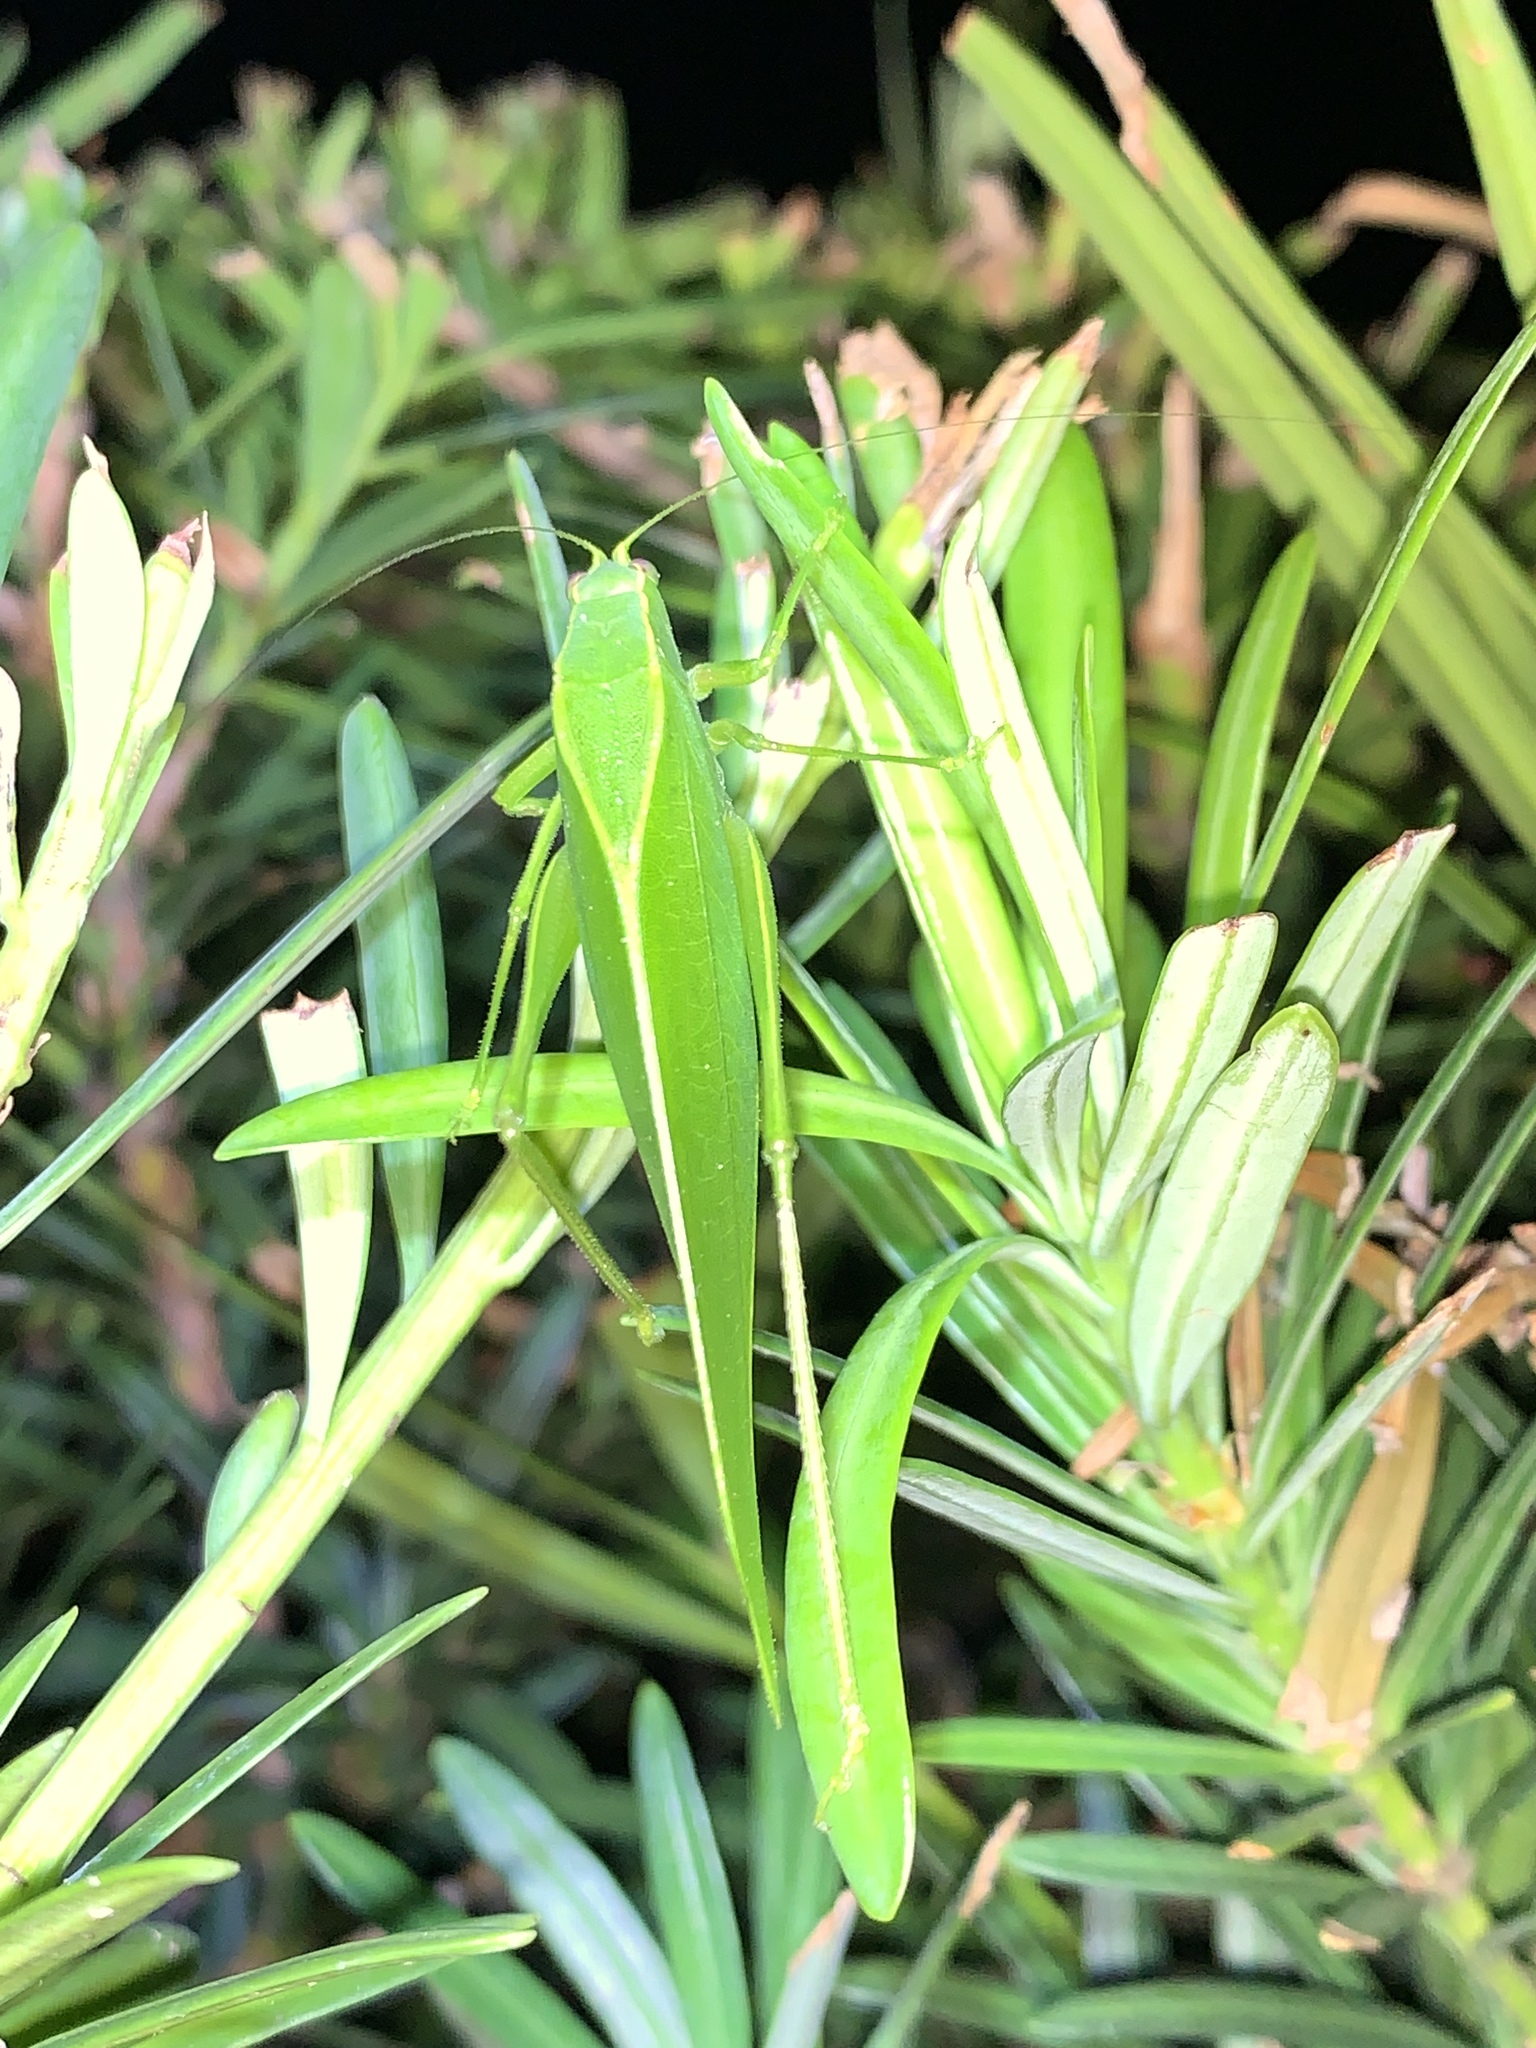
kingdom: Animalia
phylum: Arthropoda
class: Insecta
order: Orthoptera
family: Tettigoniidae
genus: Turpilia
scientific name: Turpilia rostrata
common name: Narrow-beaked katydid
